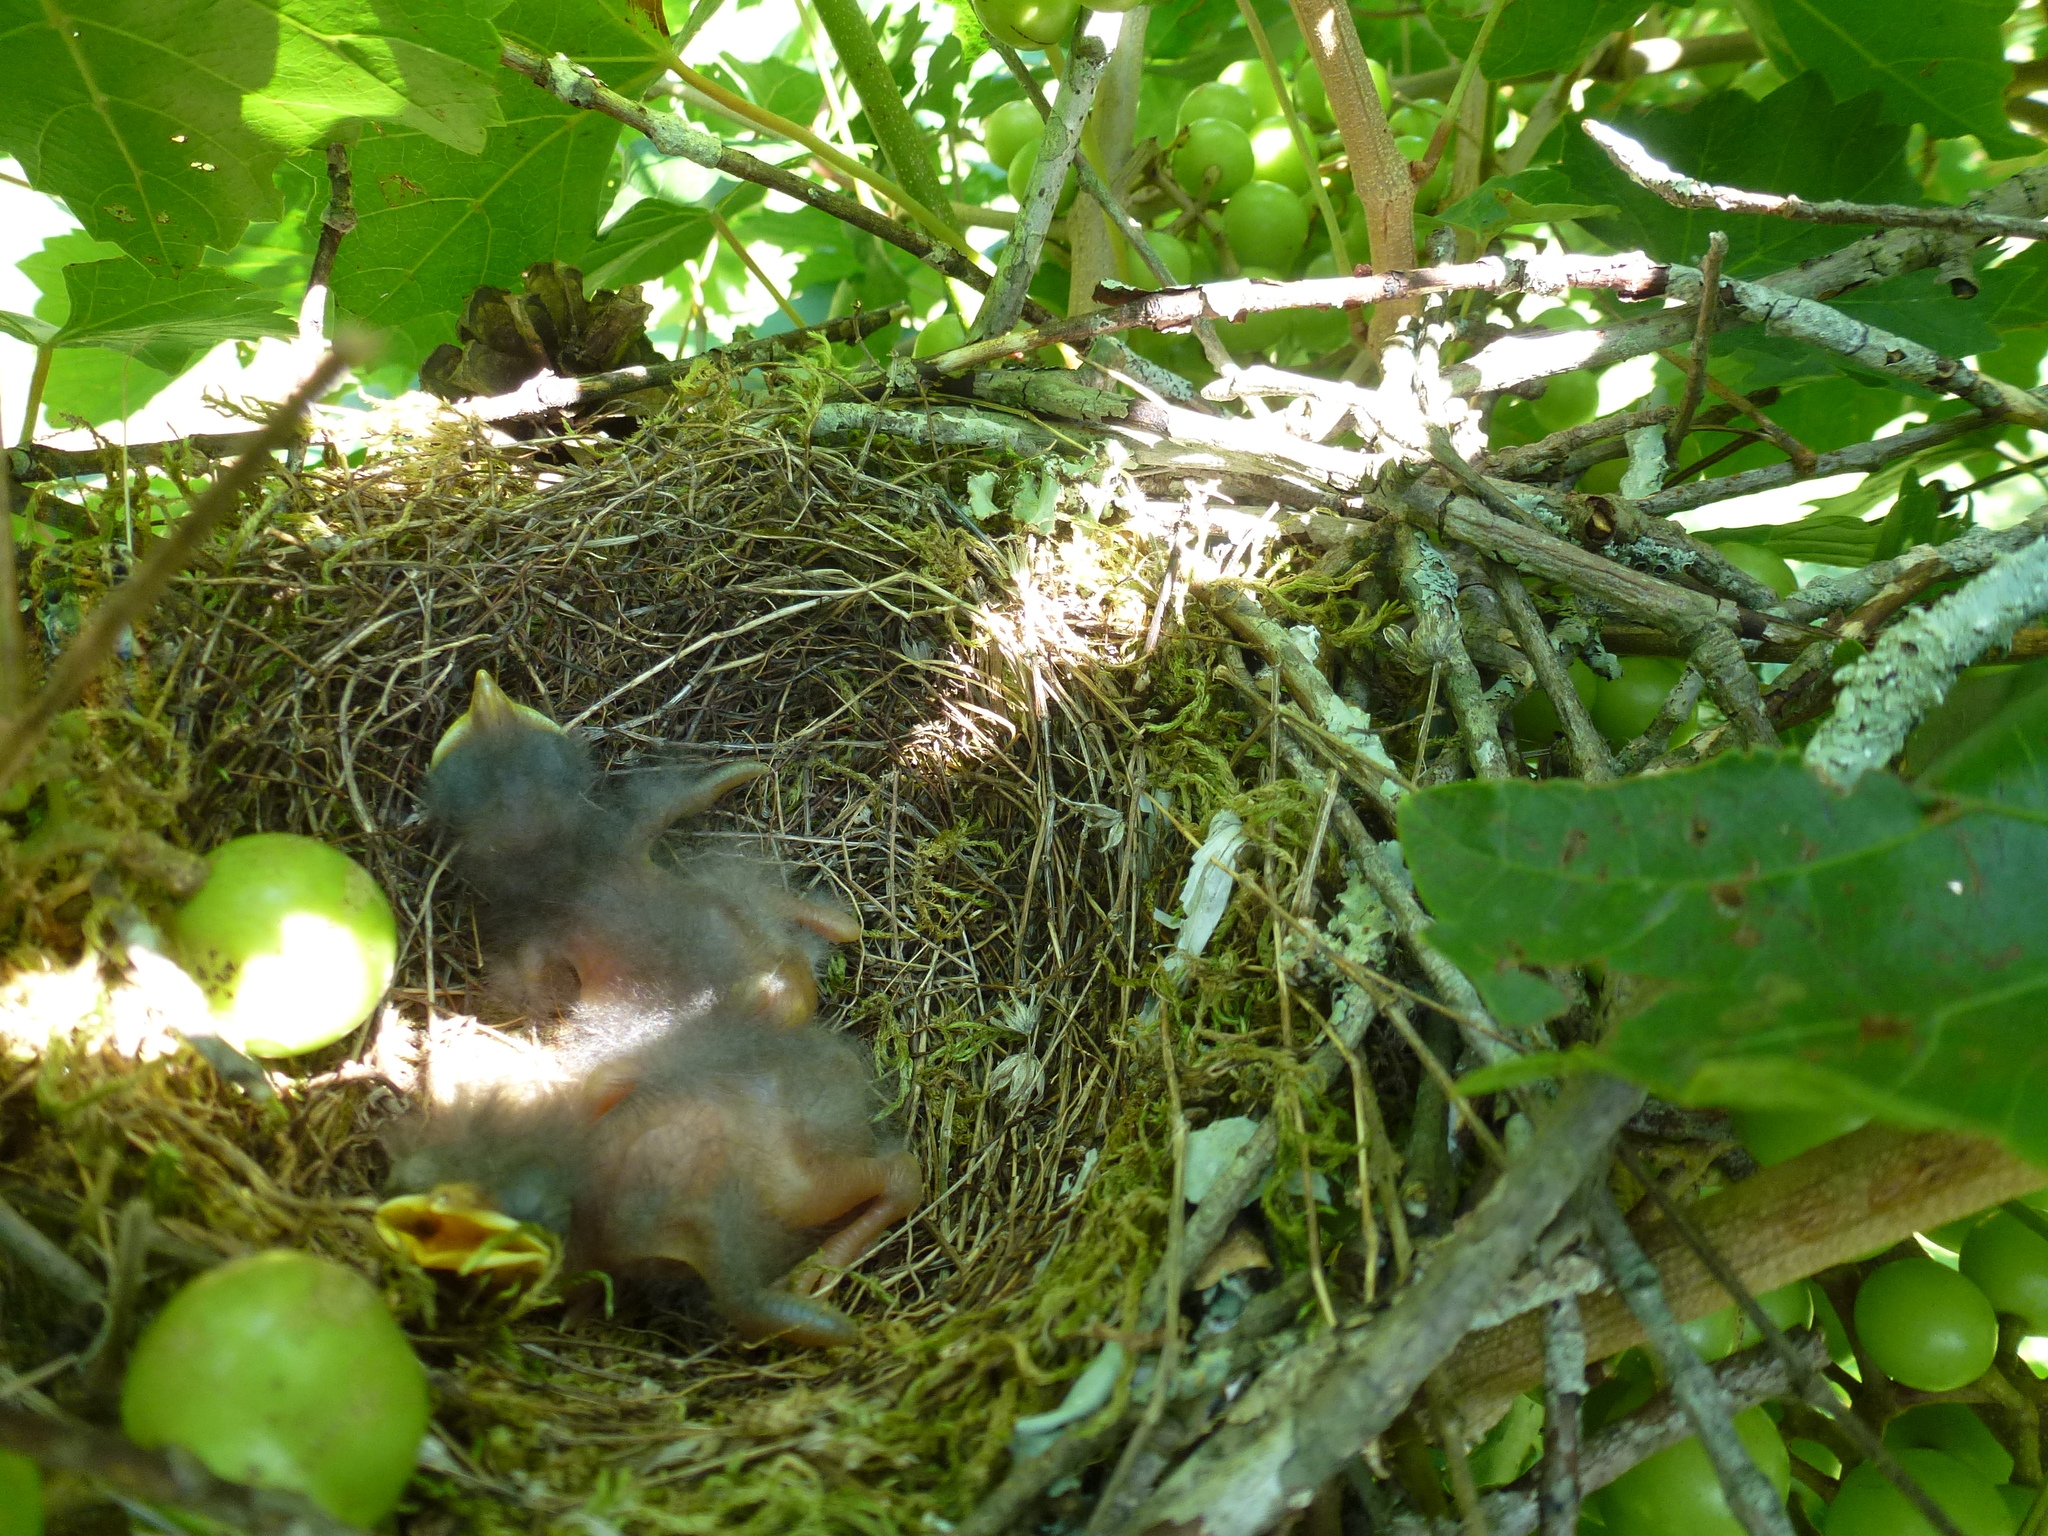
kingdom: Animalia
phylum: Chordata
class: Aves
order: Passeriformes
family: Mimidae
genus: Mimus
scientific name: Mimus polyglottos
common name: Northern mockingbird
